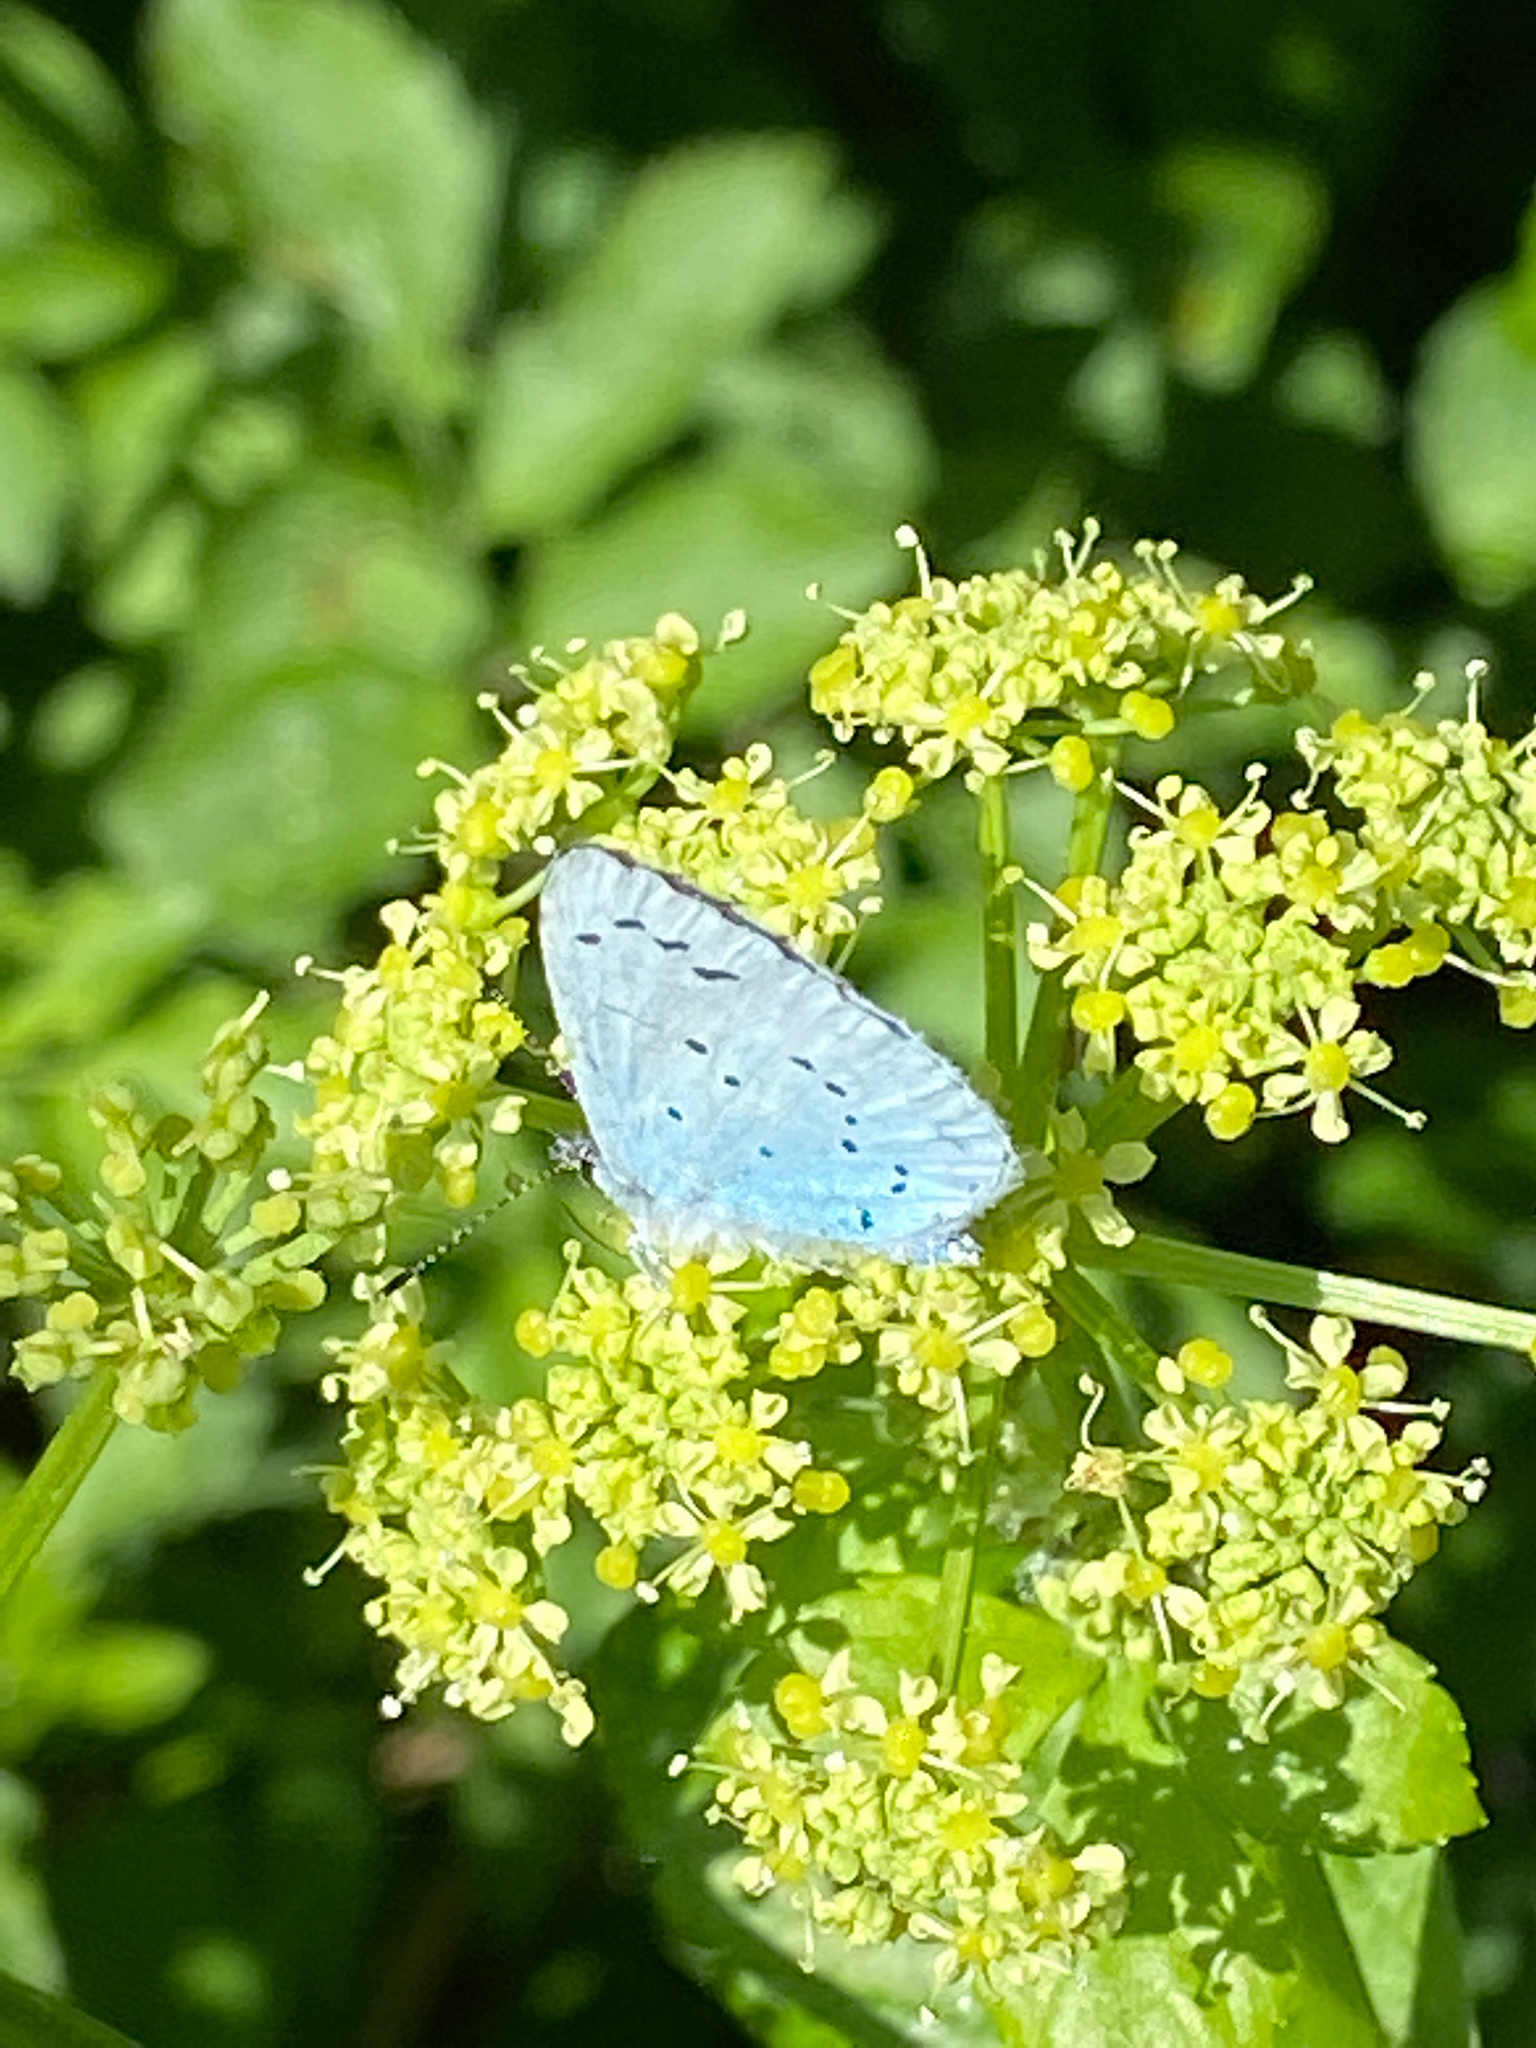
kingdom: Animalia
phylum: Arthropoda
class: Insecta
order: Lepidoptera
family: Lycaenidae
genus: Celastrina
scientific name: Celastrina argiolus
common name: Holly blue
